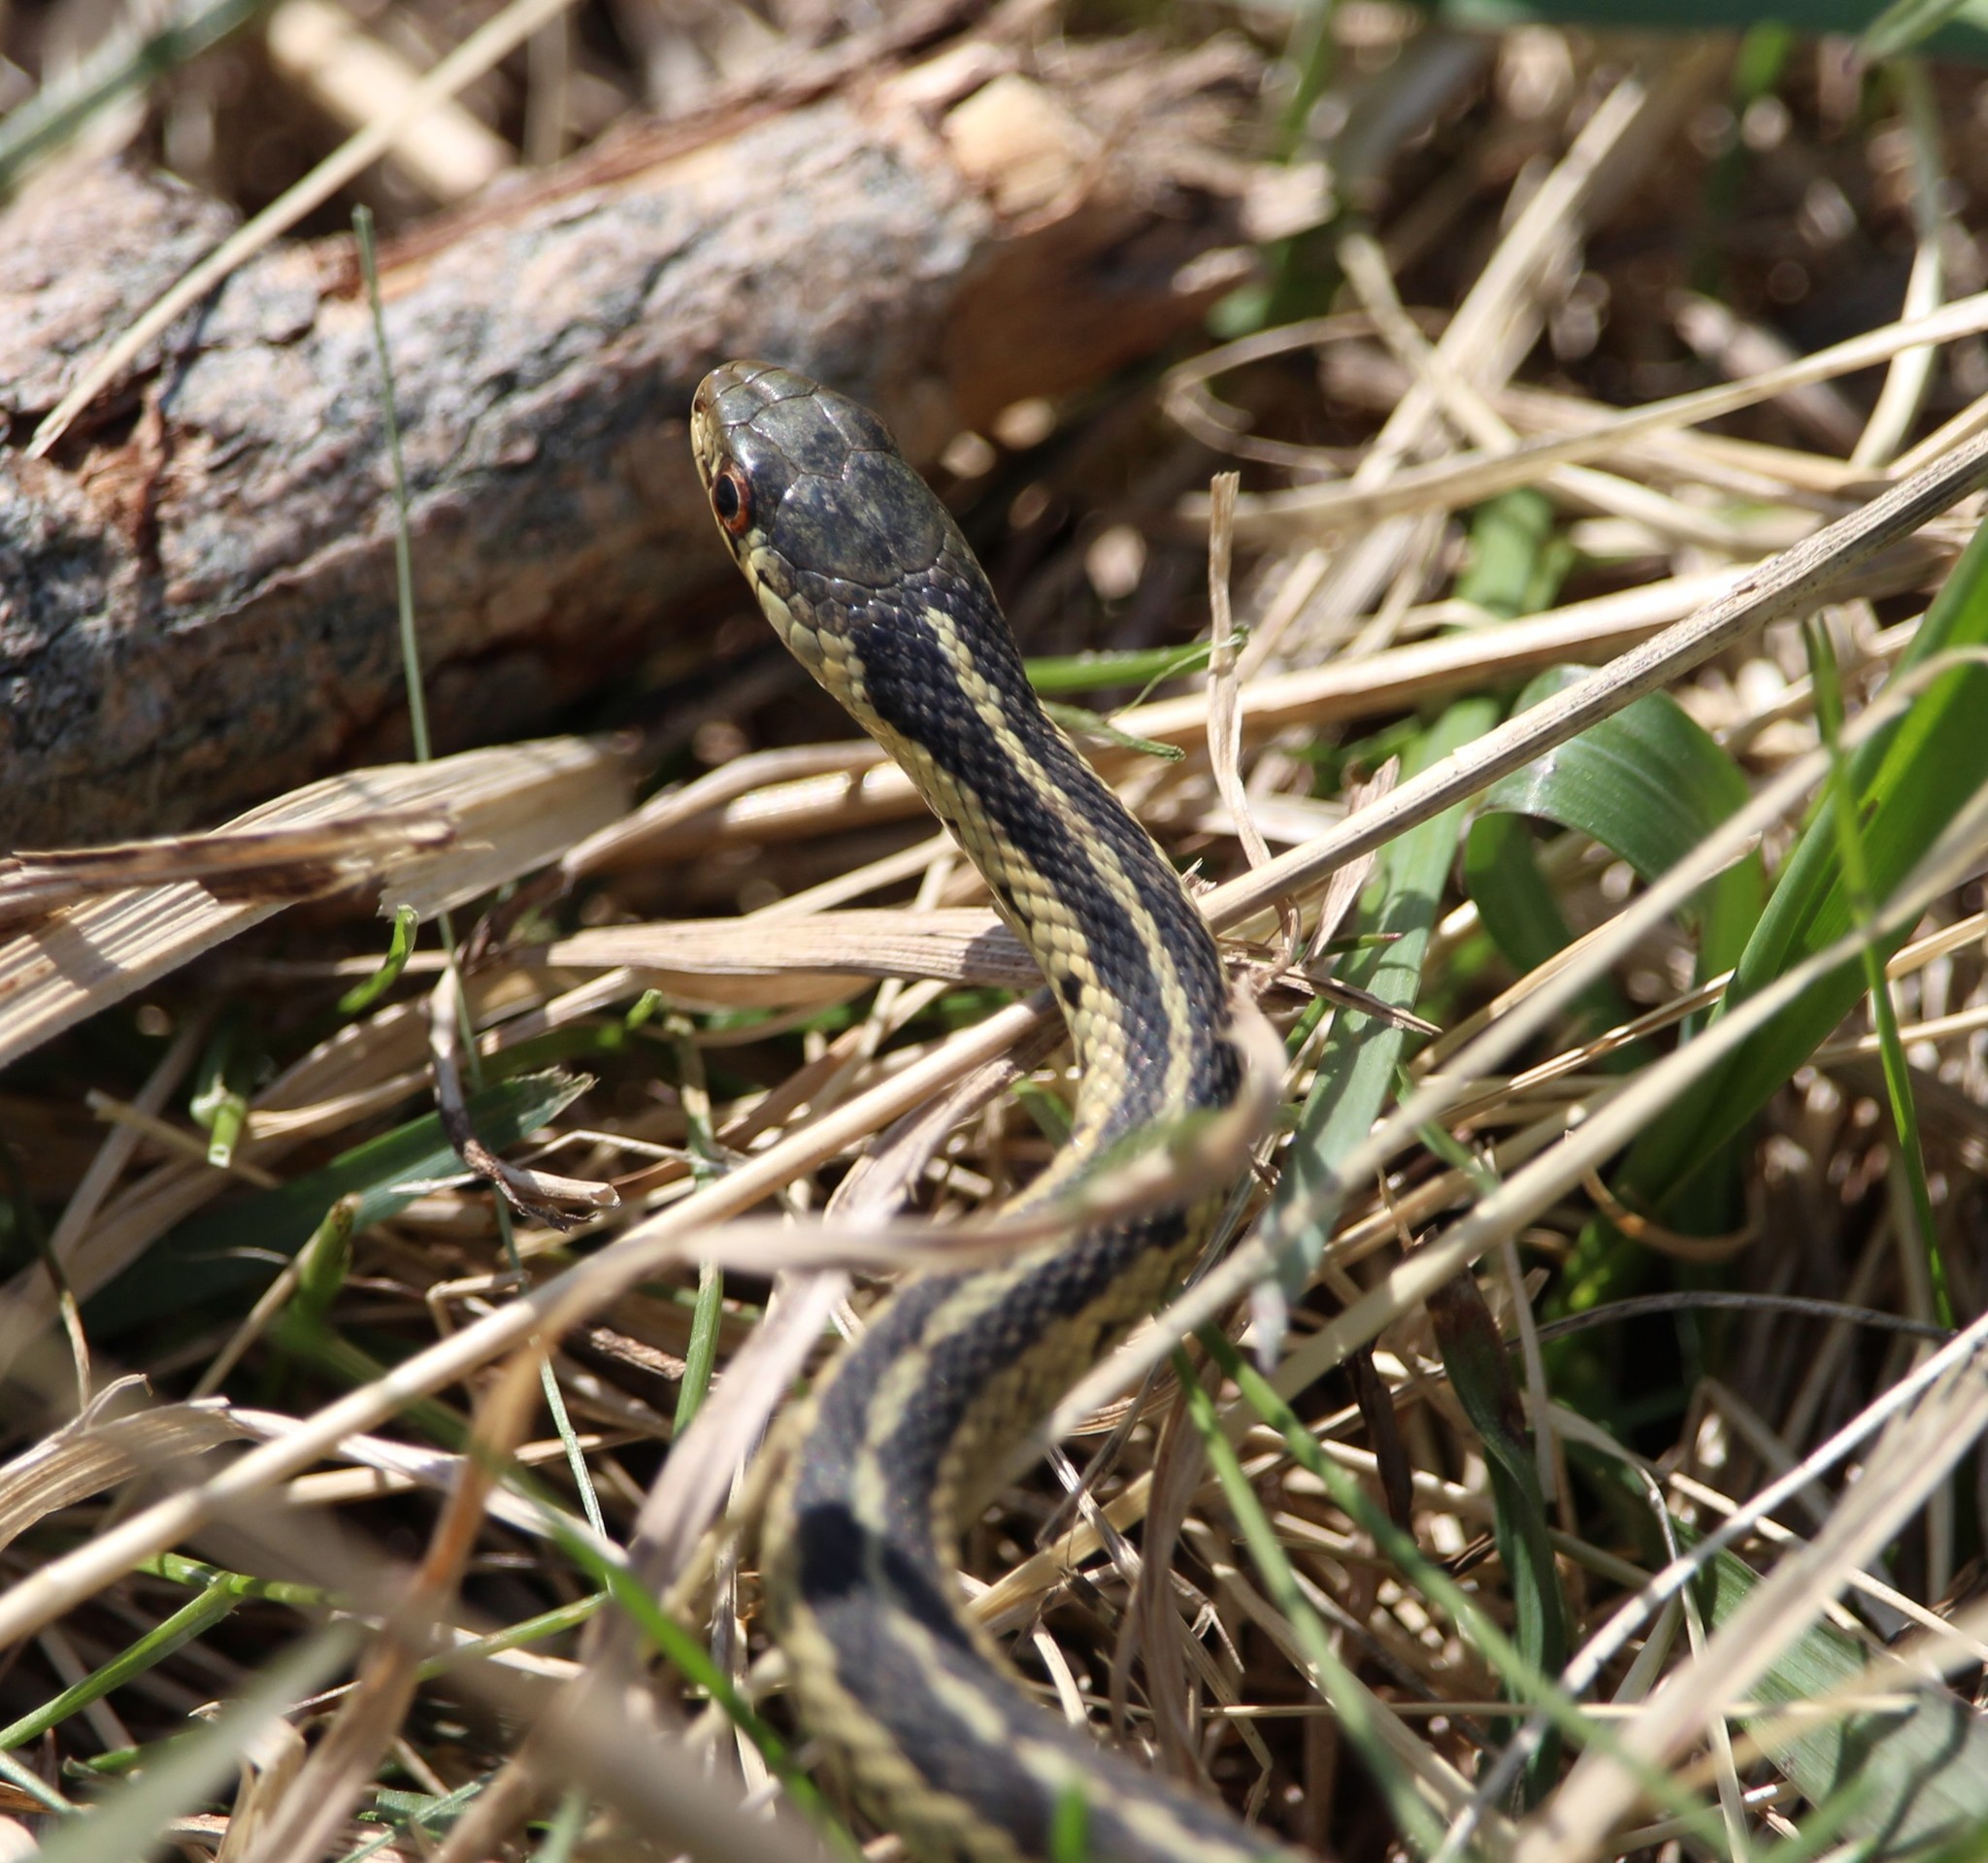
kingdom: Animalia
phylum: Chordata
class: Squamata
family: Colubridae
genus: Thamnophis
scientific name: Thamnophis sirtalis
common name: Common garter snake
